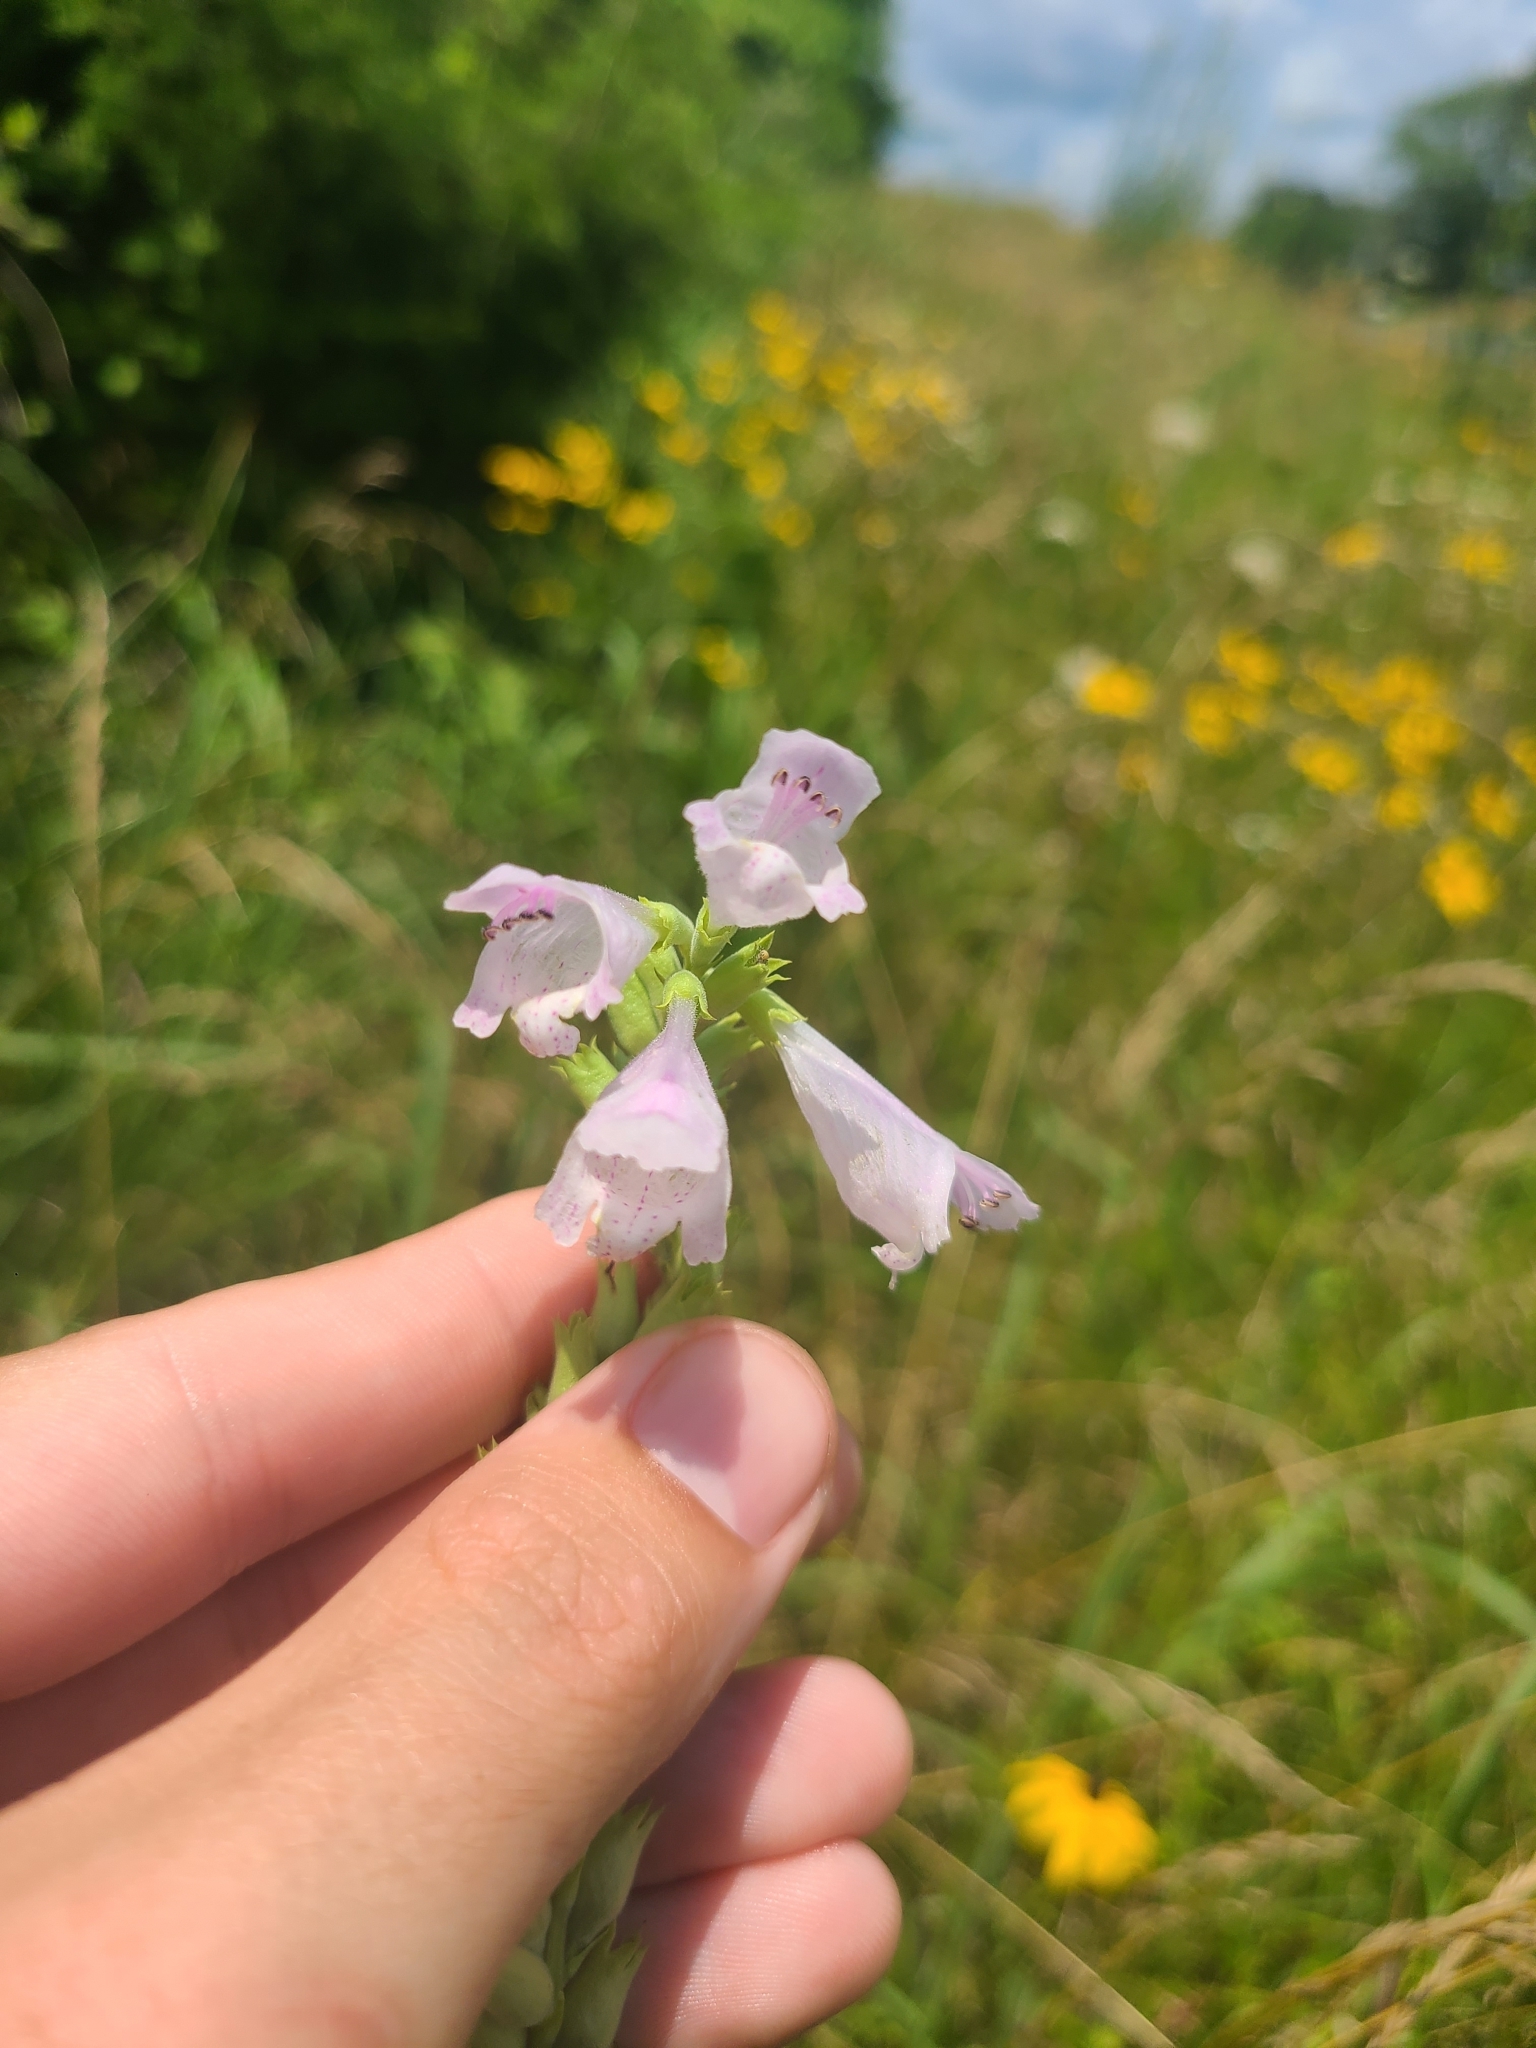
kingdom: Plantae
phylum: Tracheophyta
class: Magnoliopsida
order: Lamiales
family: Lamiaceae
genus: Physostegia
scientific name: Physostegia angustifolia
